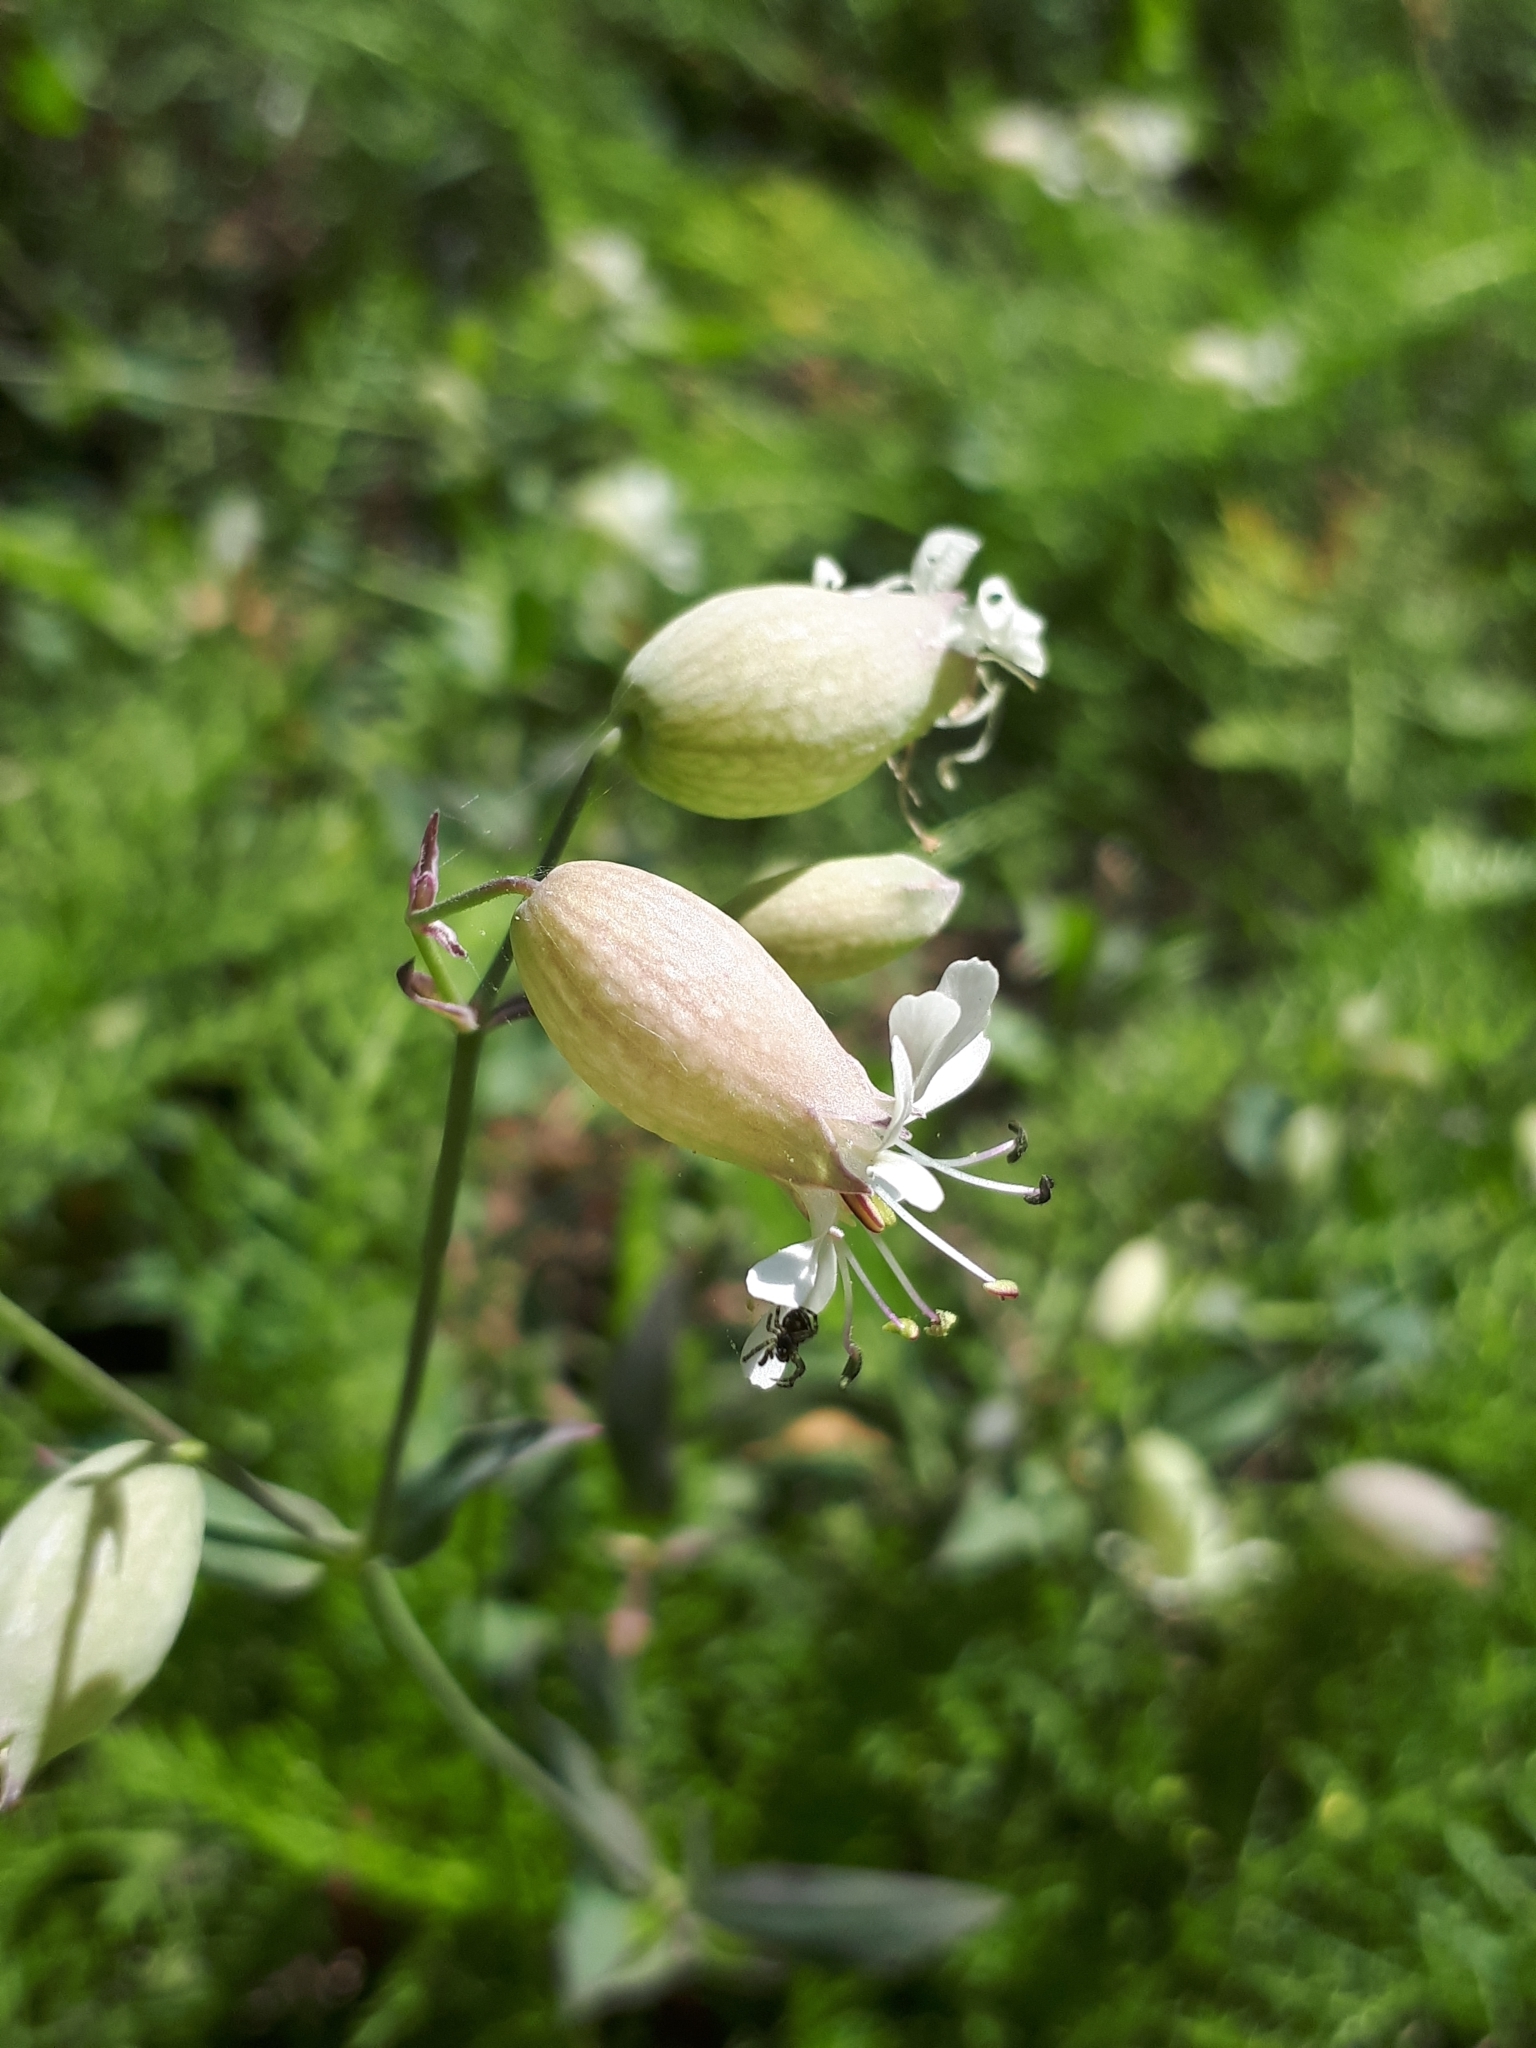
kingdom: Plantae
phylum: Tracheophyta
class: Magnoliopsida
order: Caryophyllales
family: Caryophyllaceae
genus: Silene
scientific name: Silene vulgaris
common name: Bladder campion
